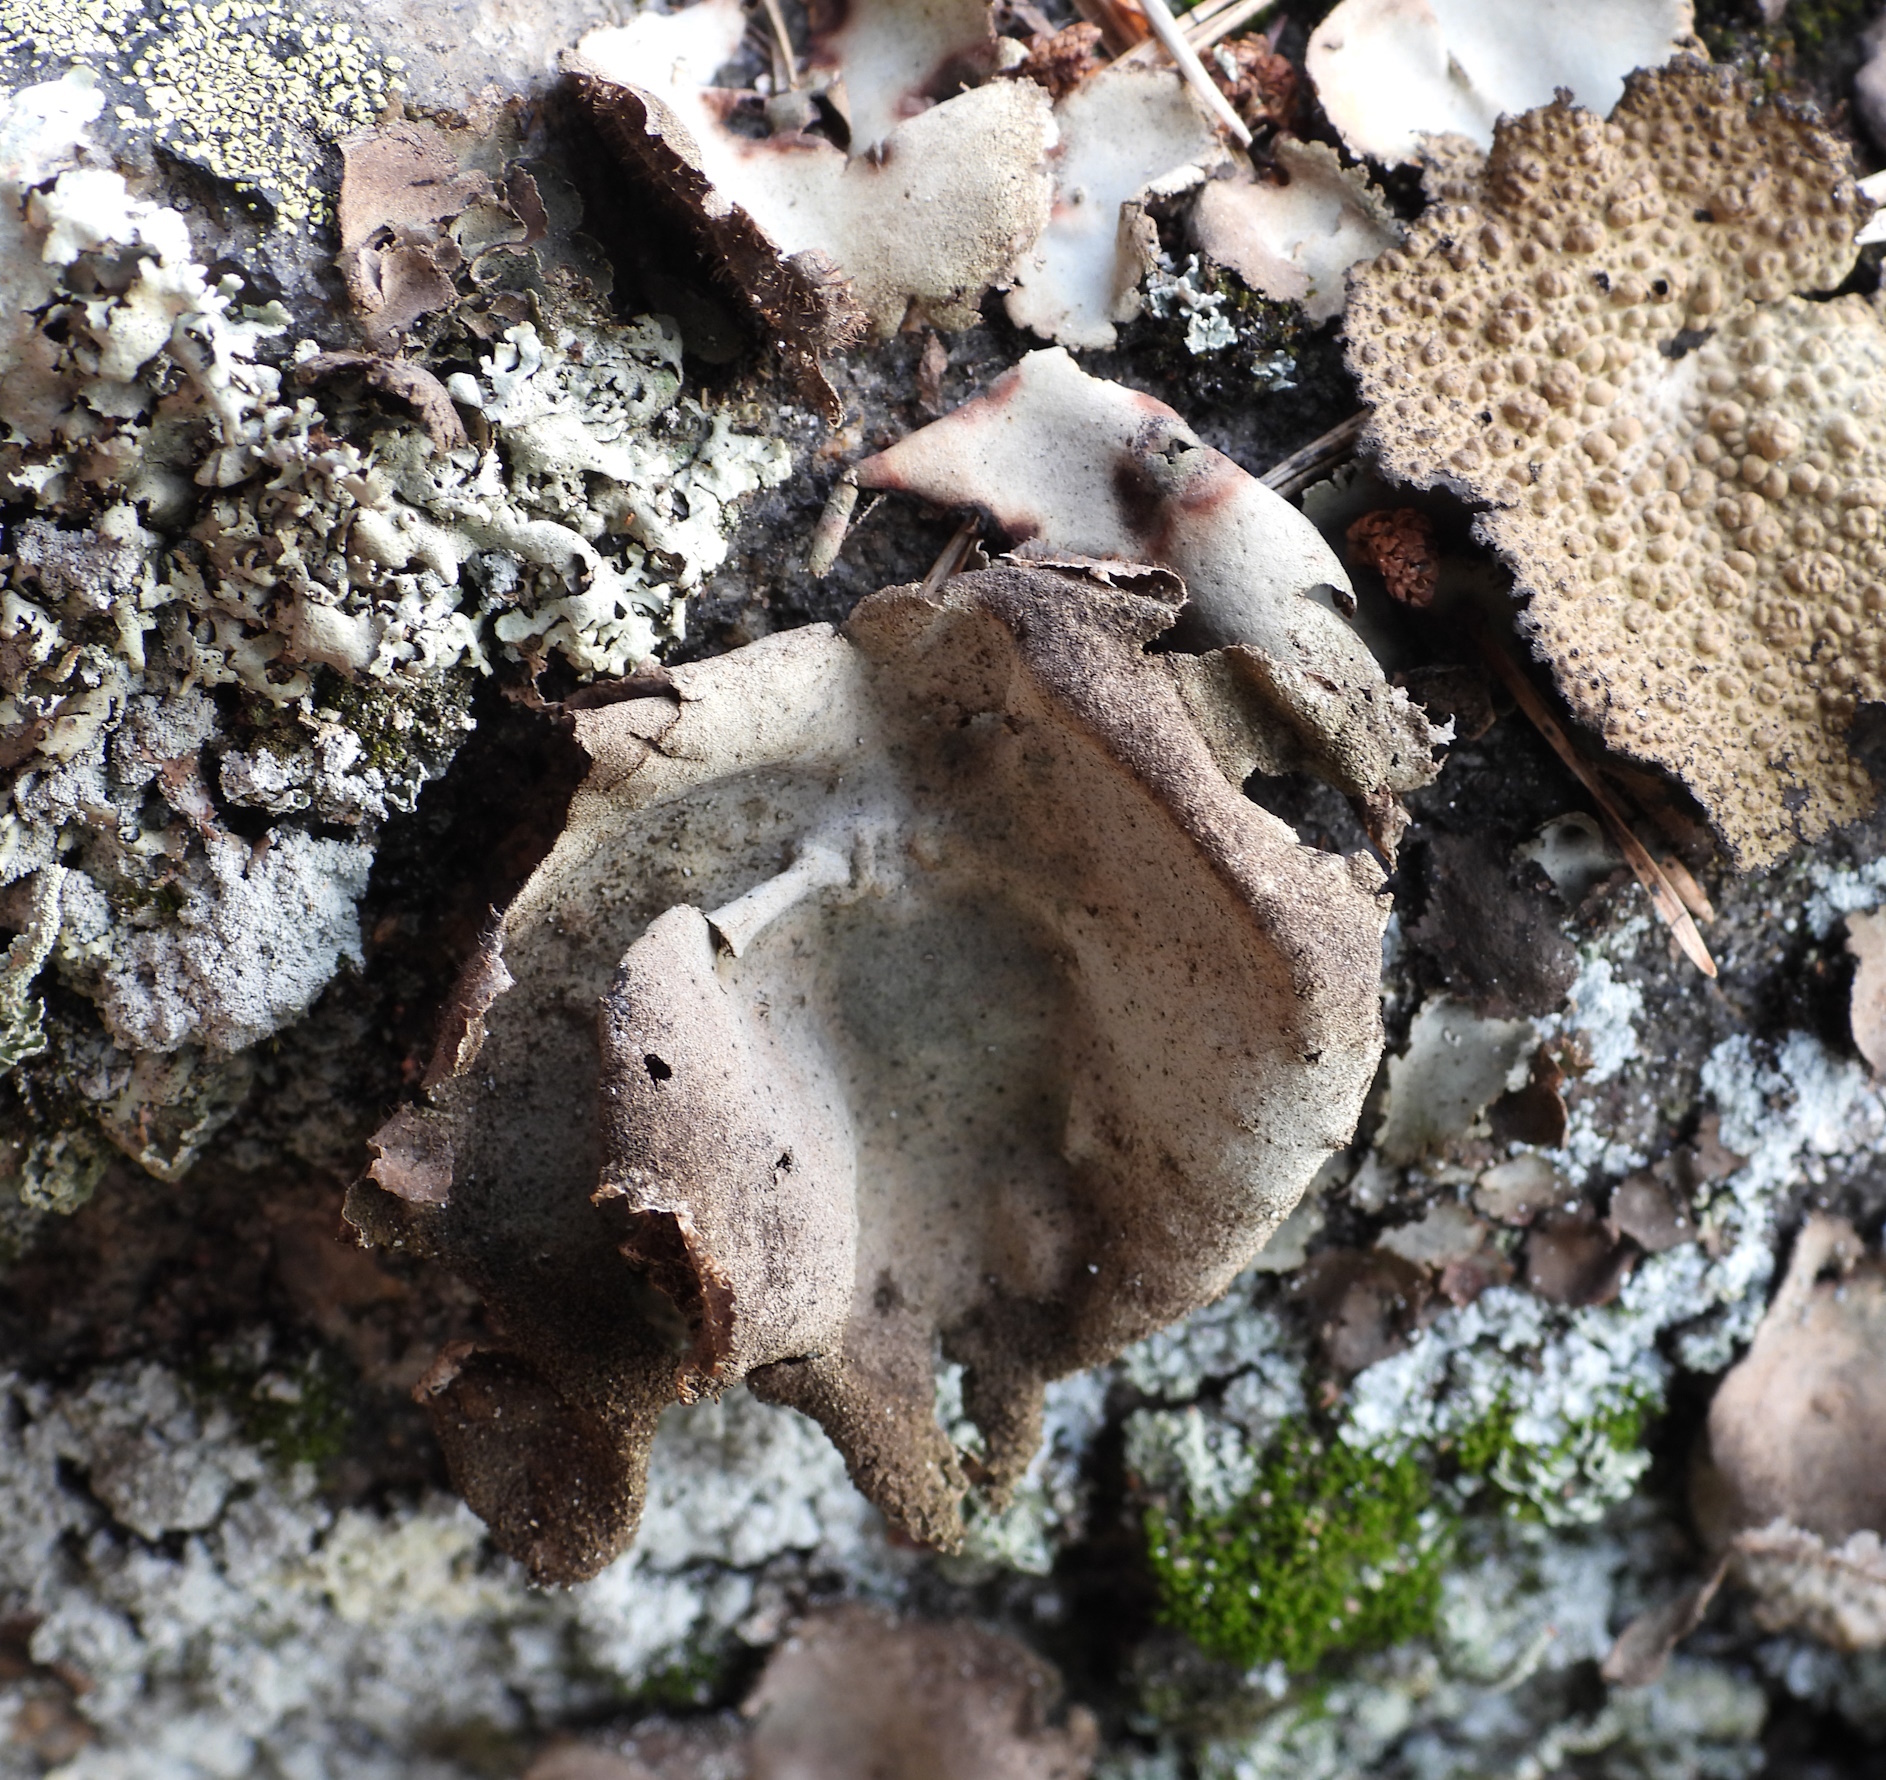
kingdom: Fungi
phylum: Ascomycota
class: Lecanoromycetes
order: Umbilicariales
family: Umbilicariaceae
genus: Umbilicaria
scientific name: Umbilicaria hirsuta
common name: Granulating rocktripe lichen
